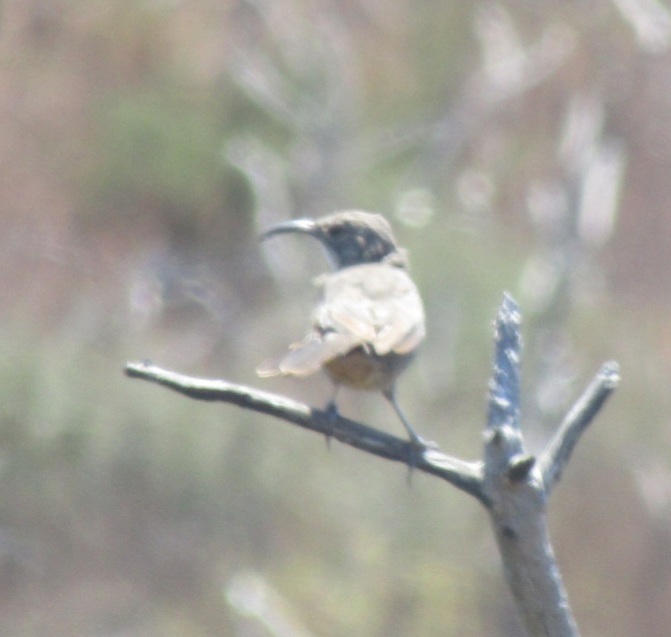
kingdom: Animalia
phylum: Chordata
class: Aves
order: Passeriformes
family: Mimidae
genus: Toxostoma
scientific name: Toxostoma redivivum
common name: California thrasher
